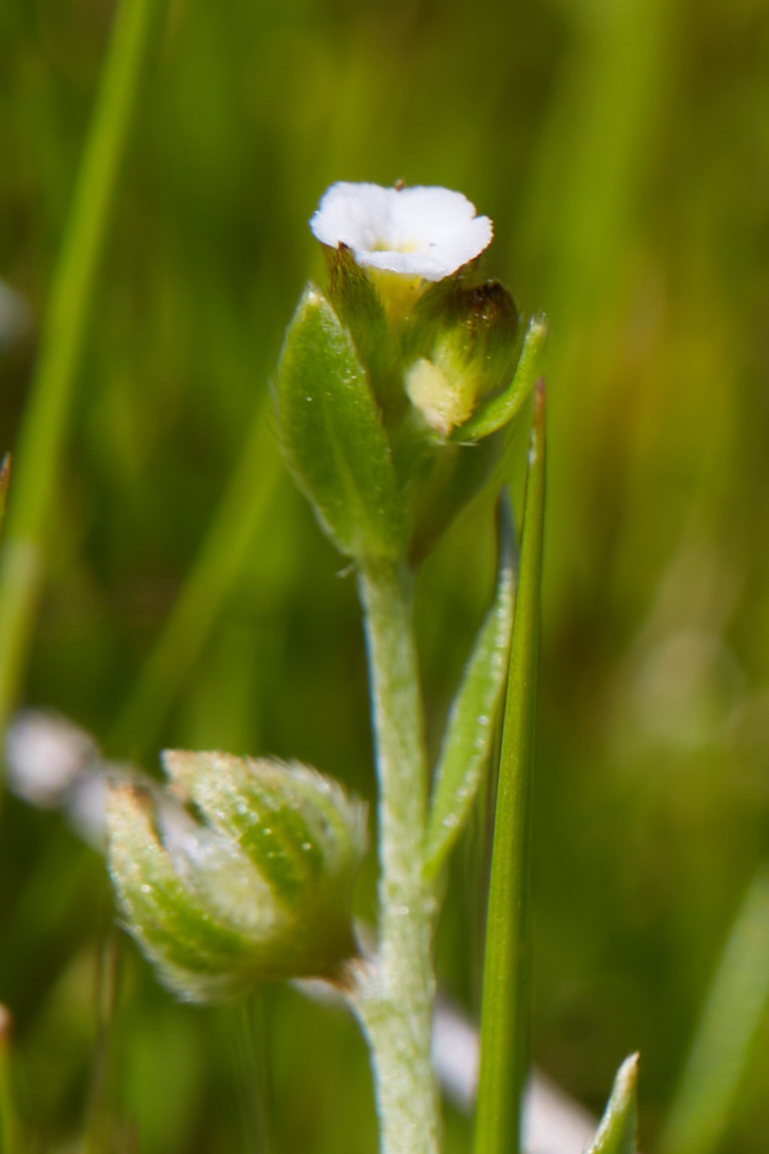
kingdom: Plantae
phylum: Tracheophyta
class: Magnoliopsida
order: Boraginales
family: Boraginaceae
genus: Plagiobothrys
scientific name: Plagiobothrys acanthocarpus
